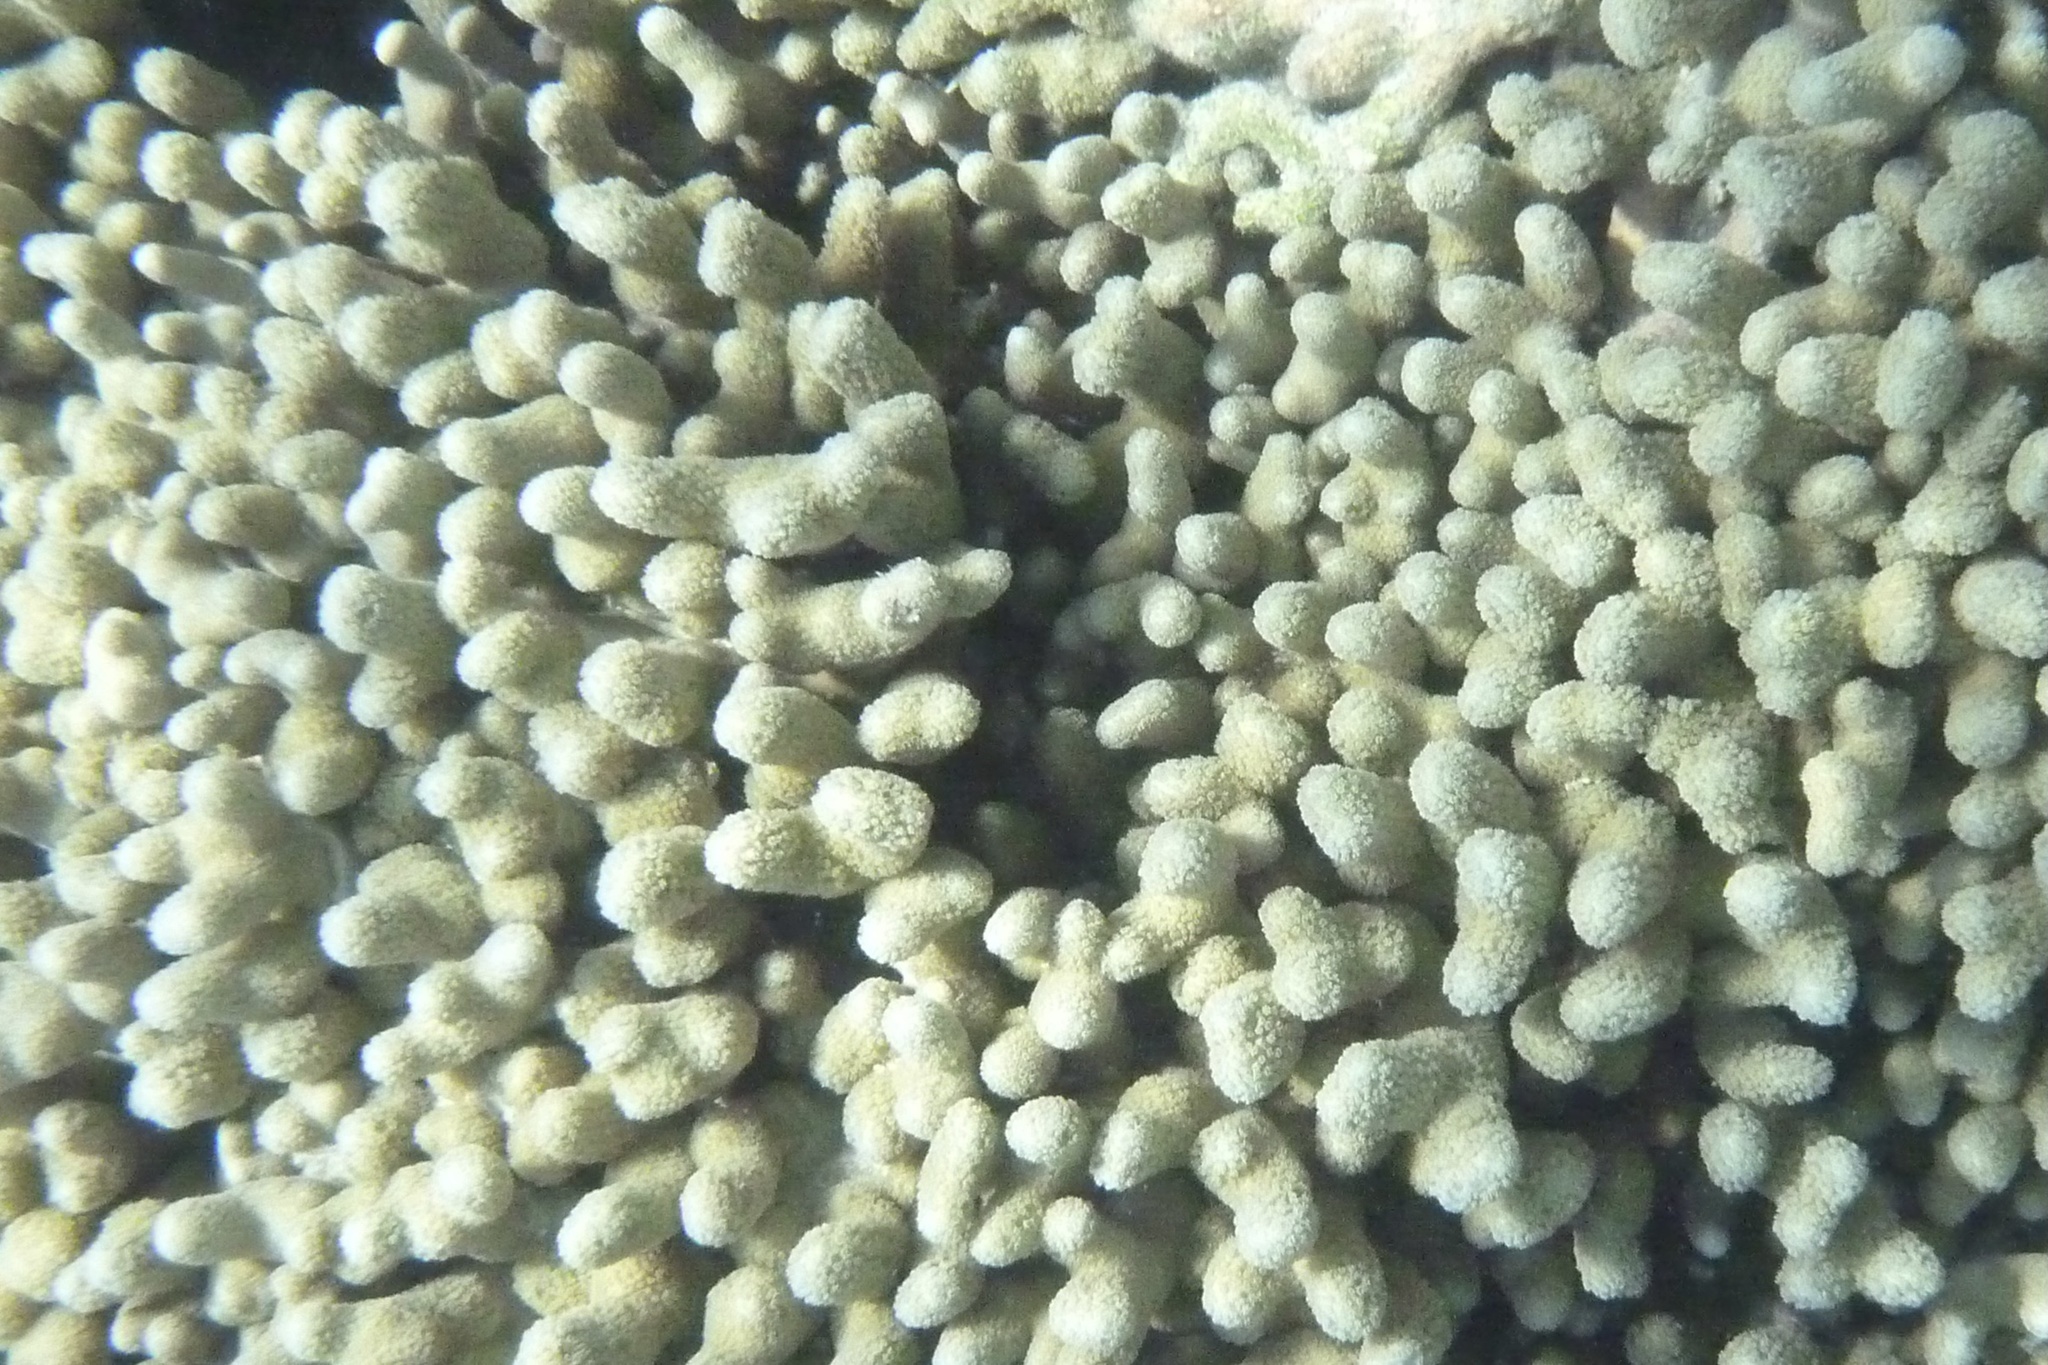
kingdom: Animalia
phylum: Cnidaria
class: Anthozoa
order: Scleractinia
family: Poritidae
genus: Porites
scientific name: Porites porites
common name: Finger coral
